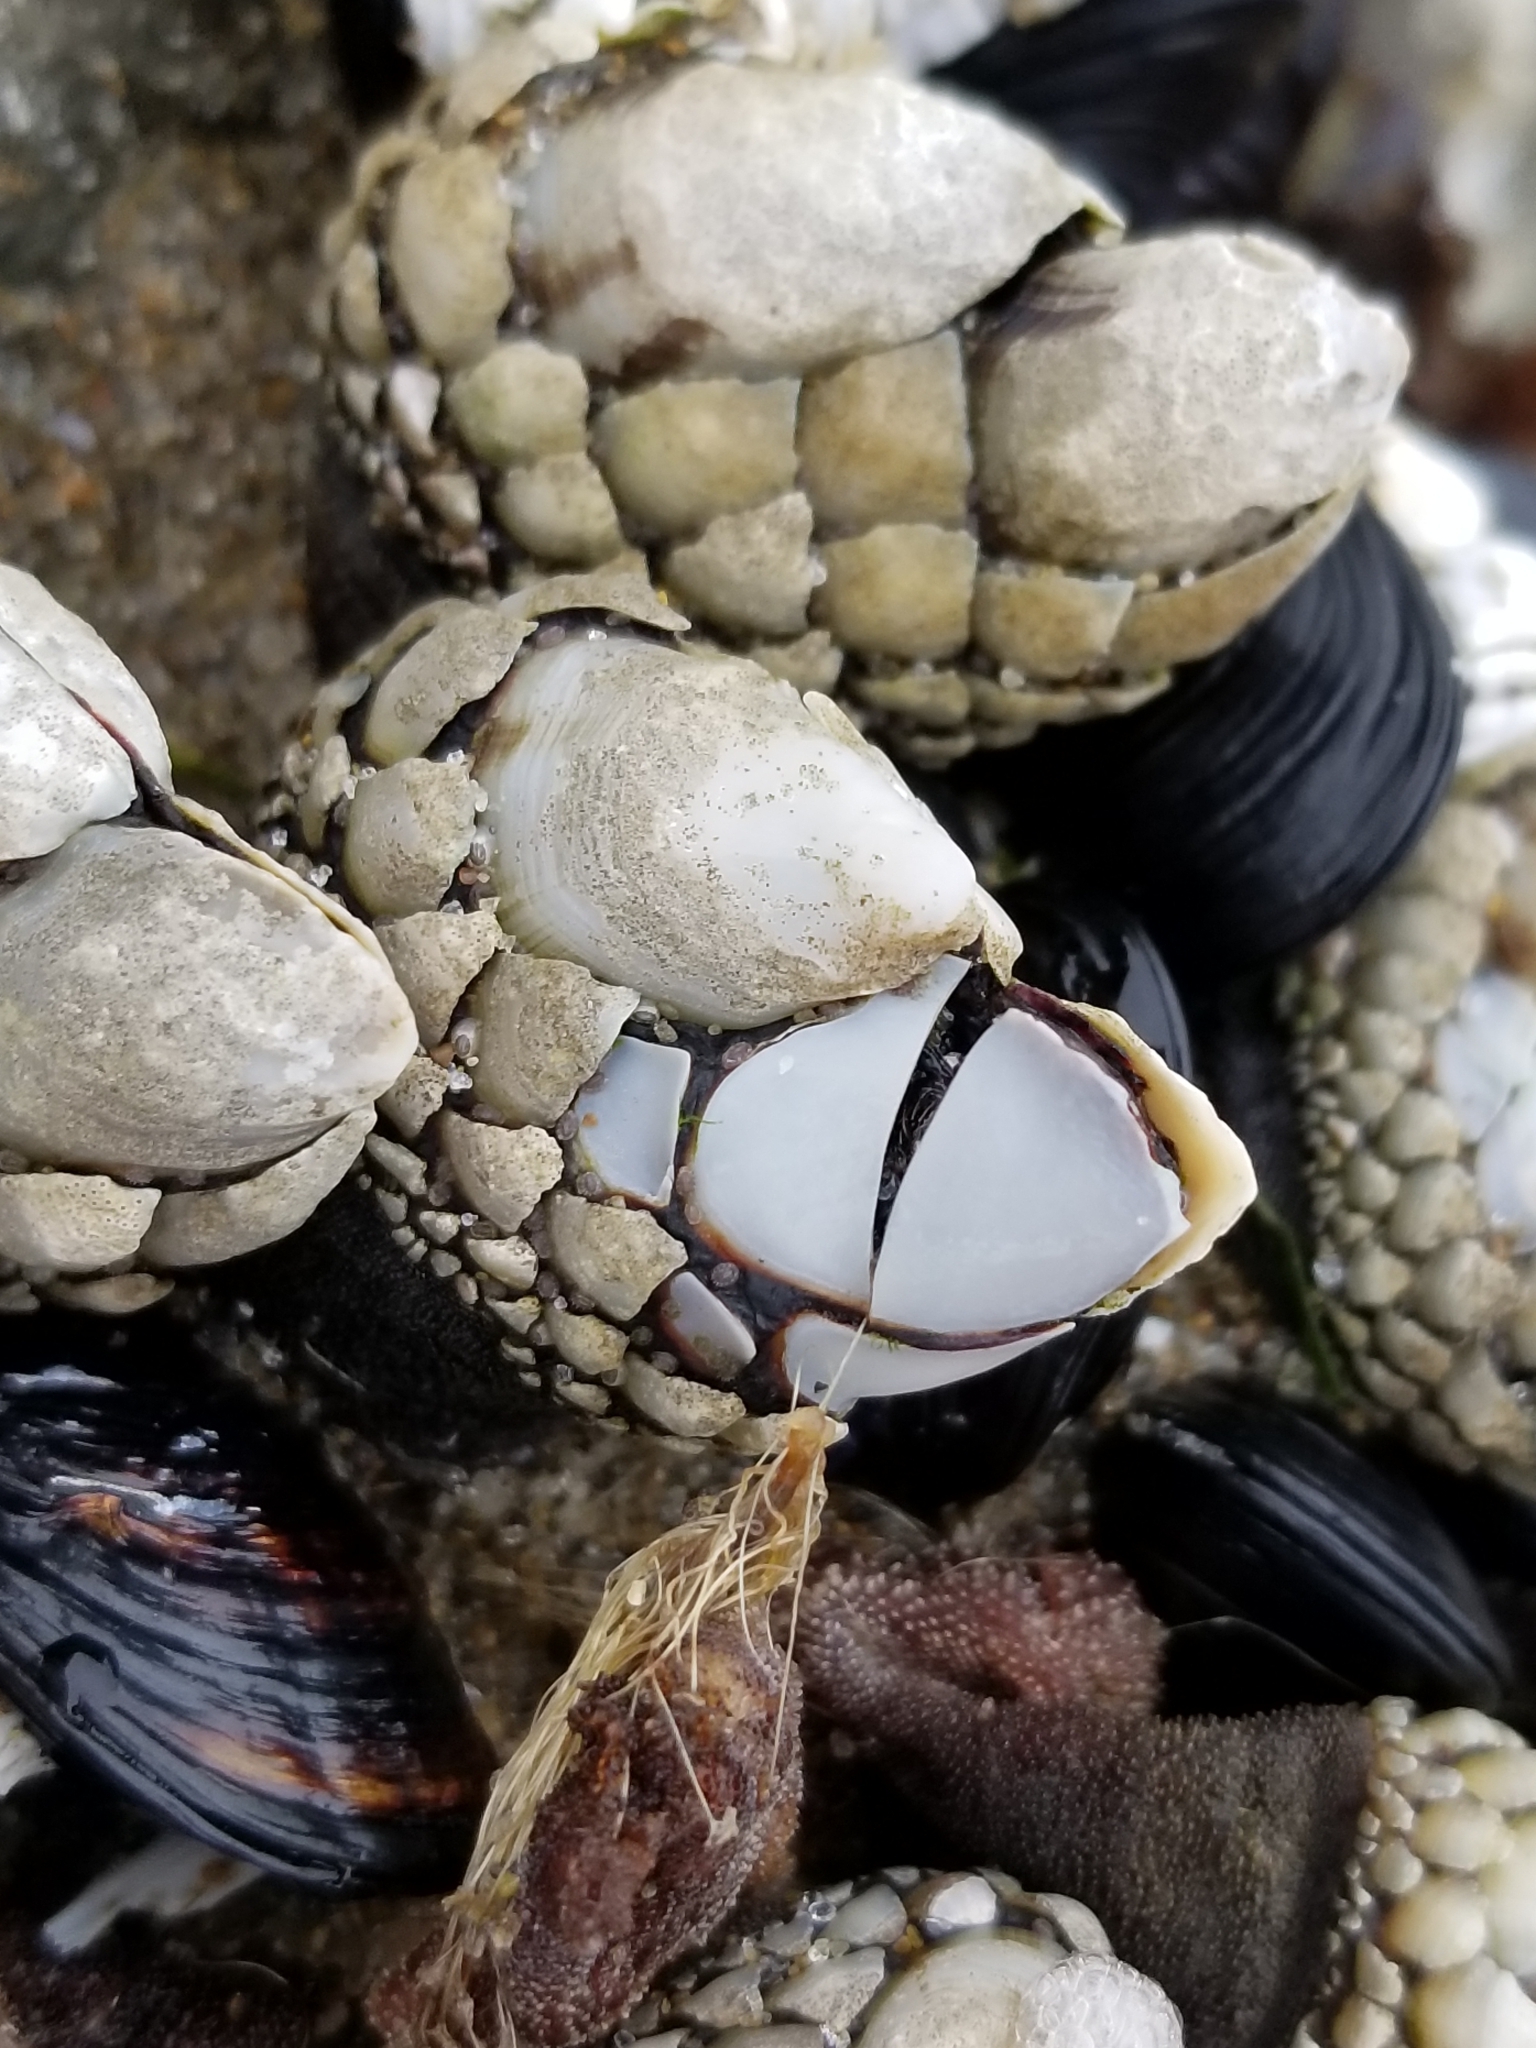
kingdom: Animalia
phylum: Arthropoda
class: Maxillopoda
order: Pedunculata
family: Pollicipedidae
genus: Pollicipes
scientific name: Pollicipes polymerus
